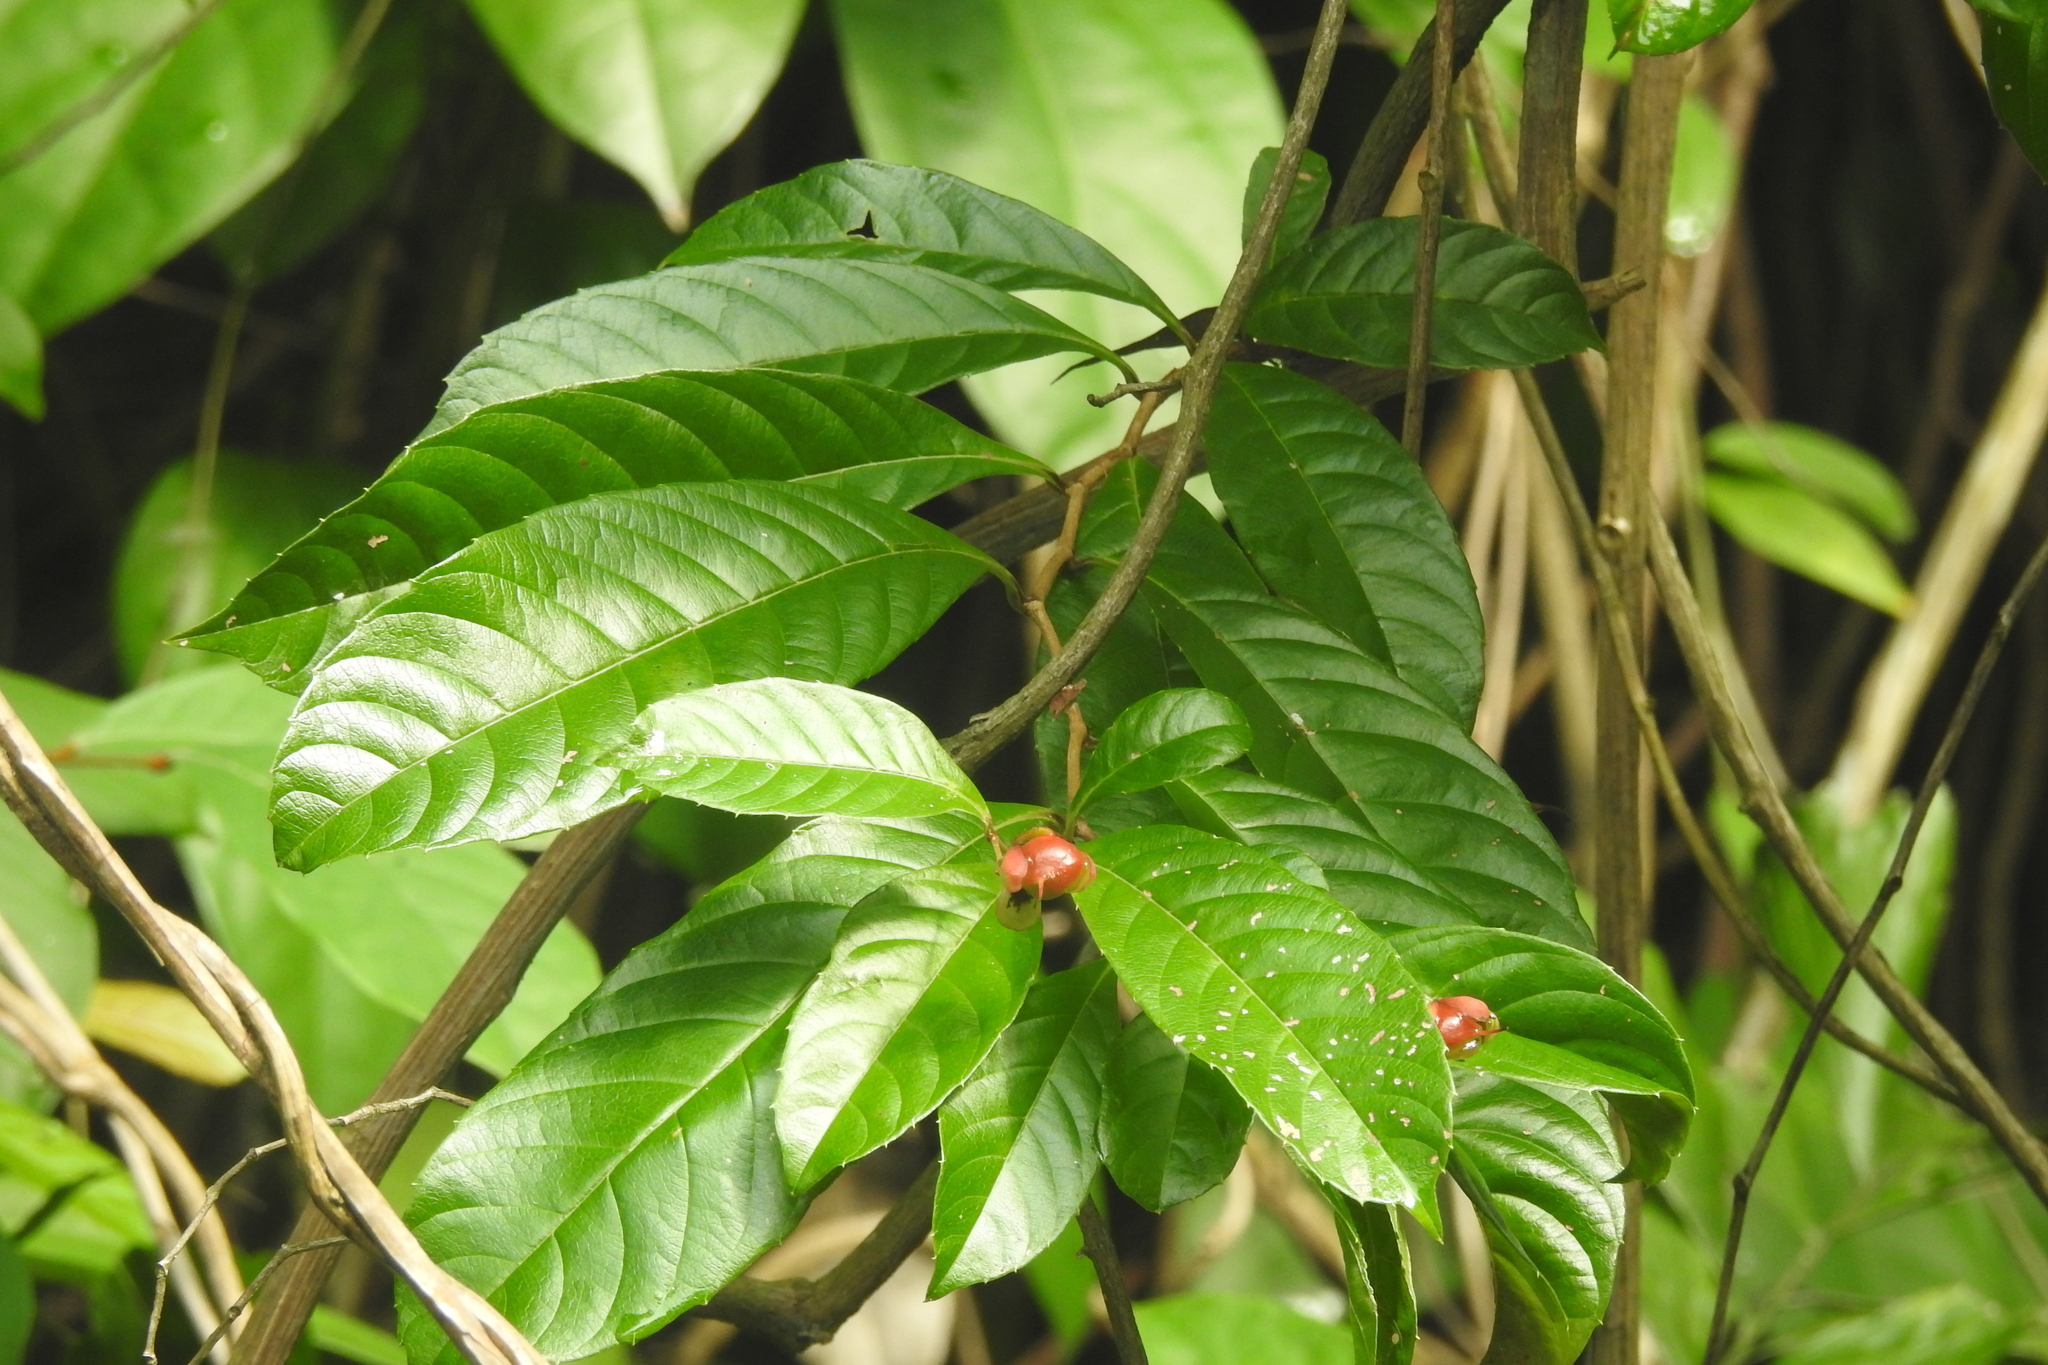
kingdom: Plantae
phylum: Tracheophyta
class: Magnoliopsida
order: Dilleniales
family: Dilleniaceae
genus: Tetracera
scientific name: Tetracera indica
